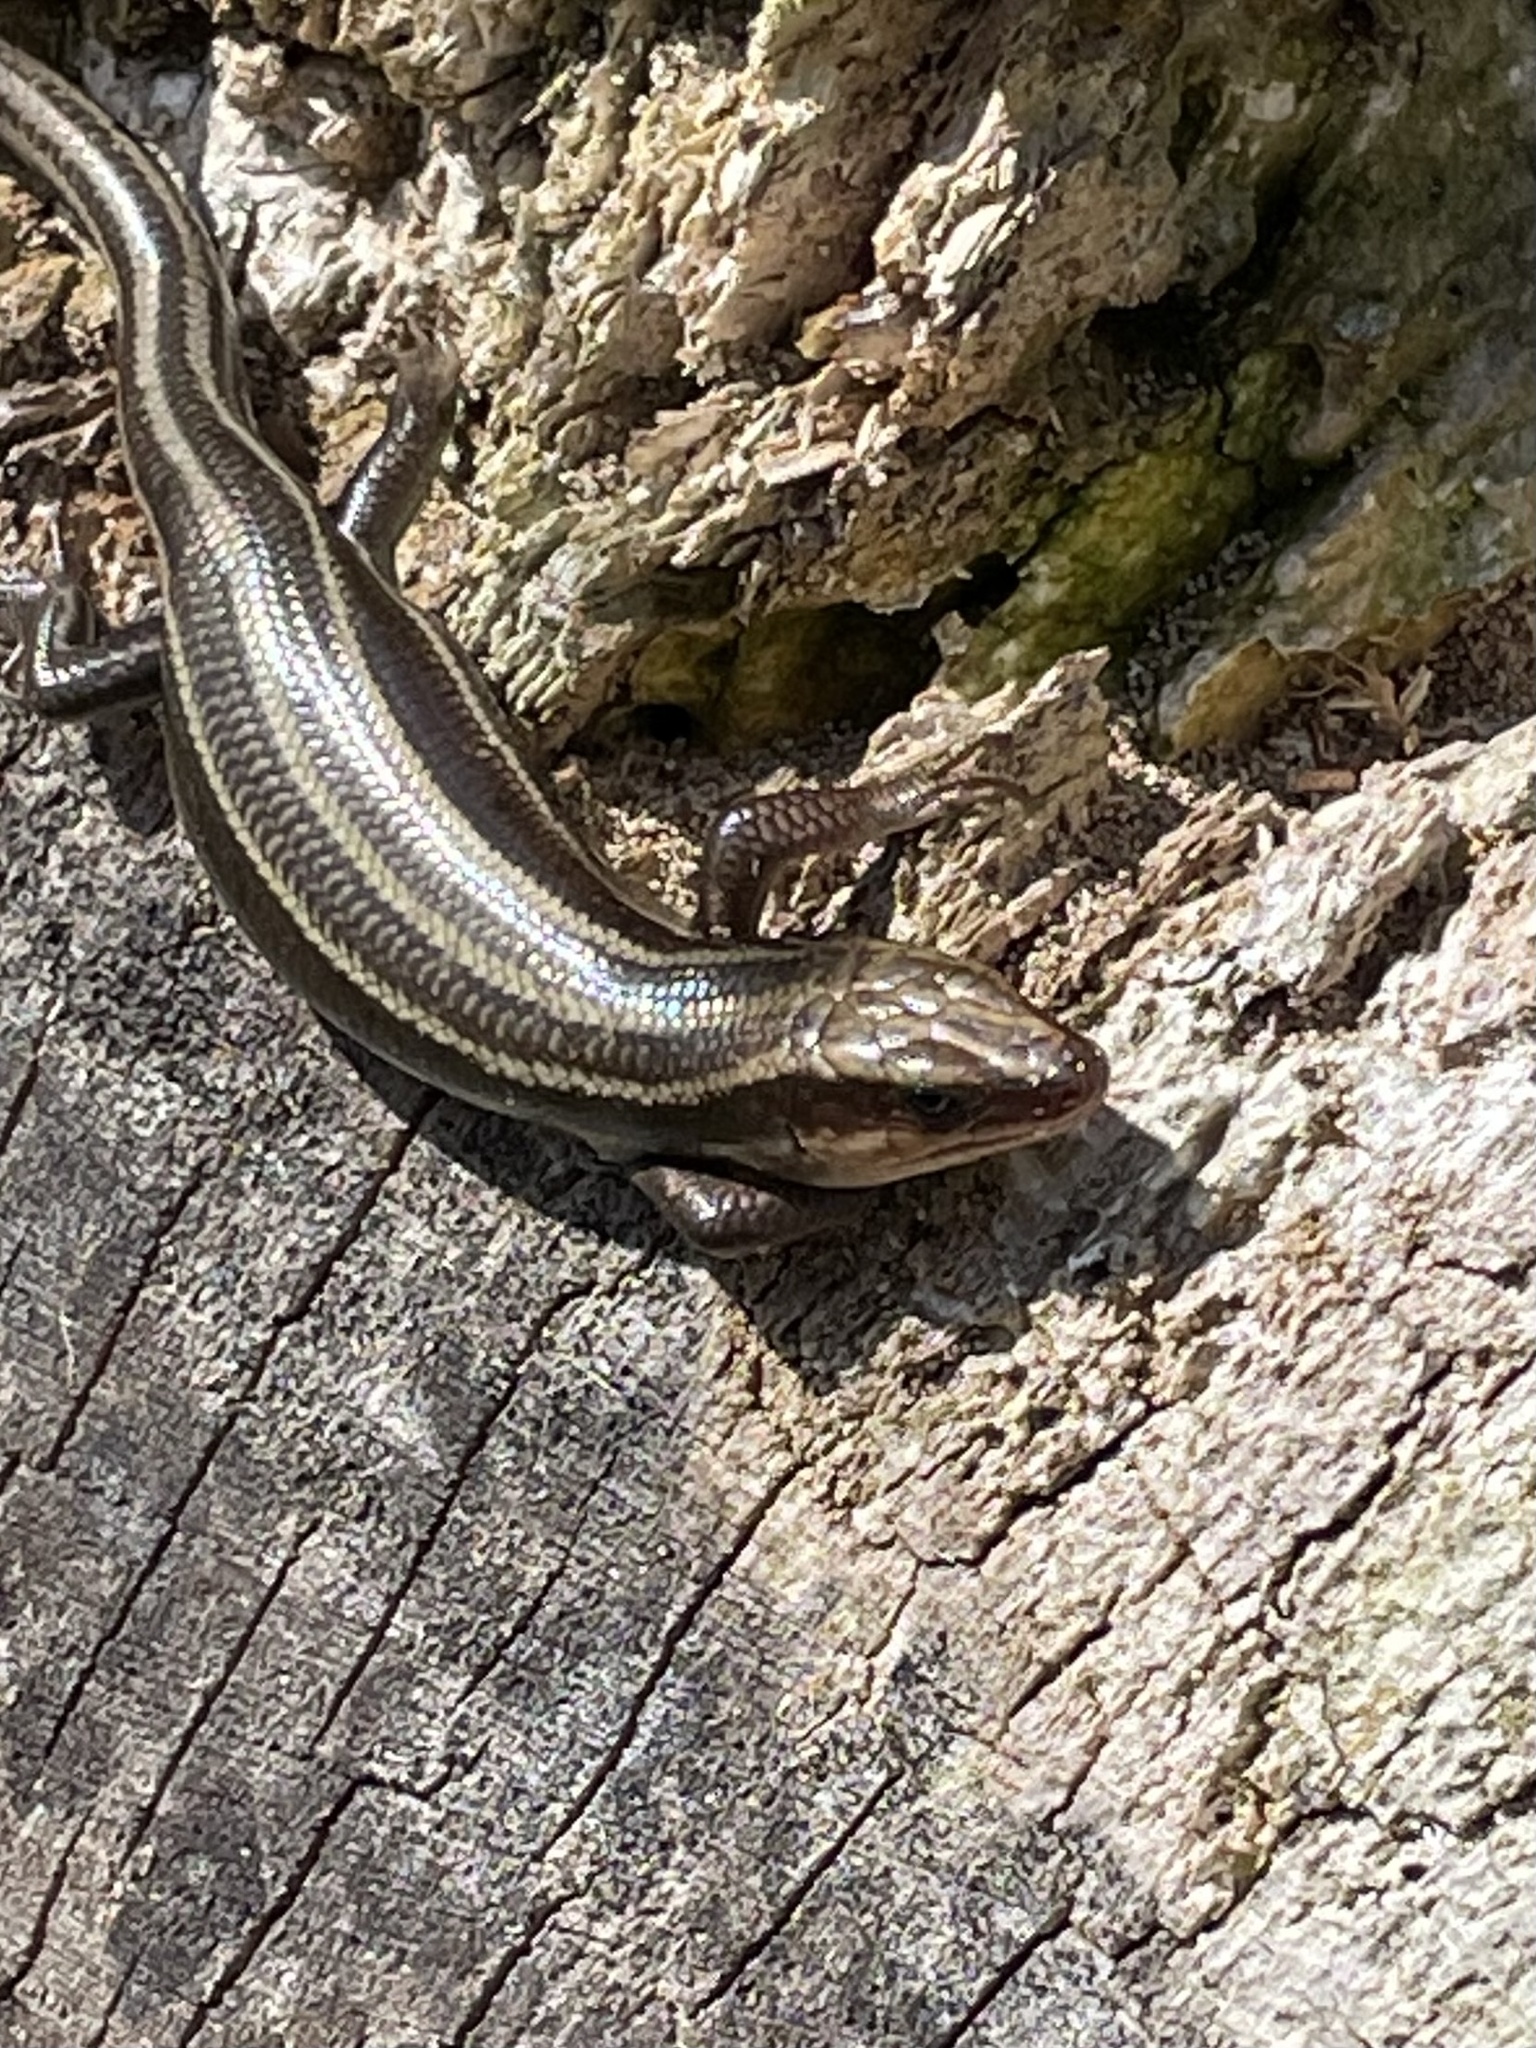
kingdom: Animalia
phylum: Chordata
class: Squamata
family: Scincidae
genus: Plestiodon
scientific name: Plestiodon fasciatus
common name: Five-lined skink
